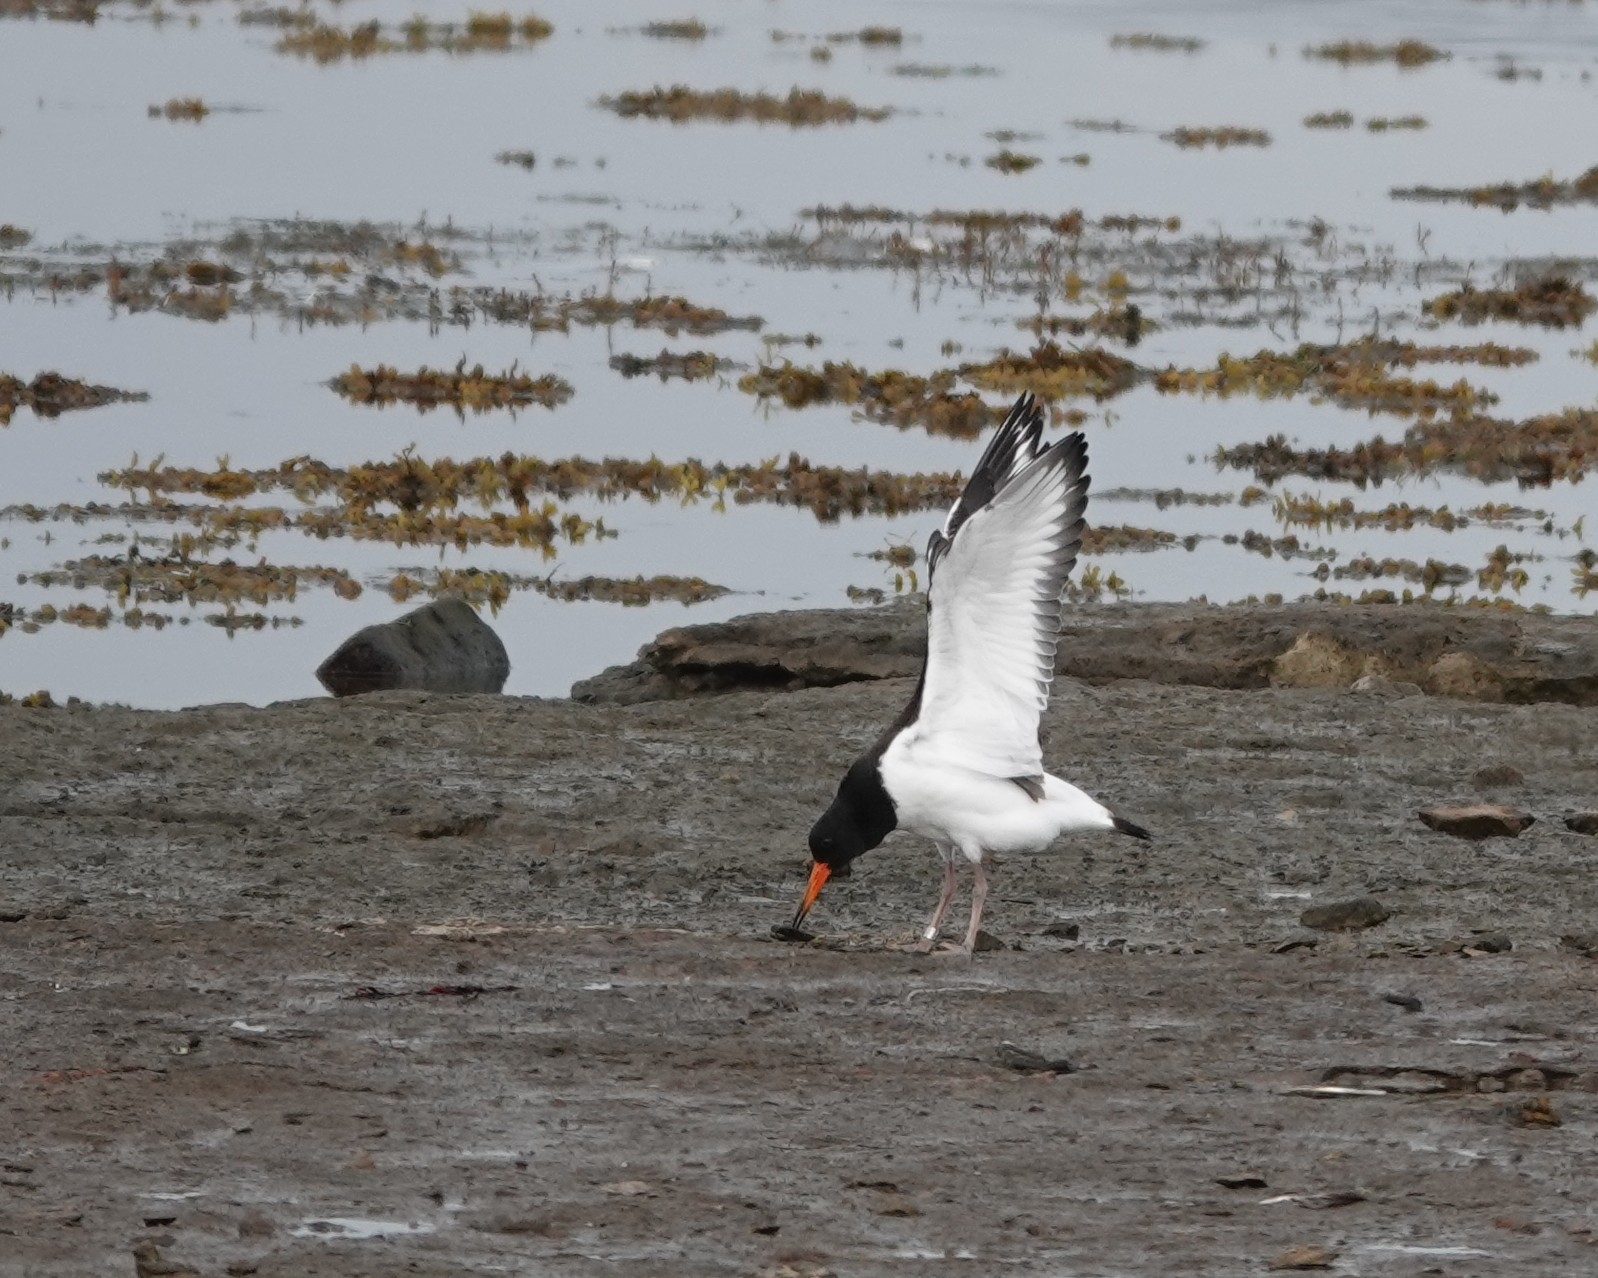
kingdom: Animalia
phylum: Chordata
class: Aves
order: Charadriiformes
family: Haematopodidae
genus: Haematopus
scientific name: Haematopus ostralegus
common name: Eurasian oystercatcher
